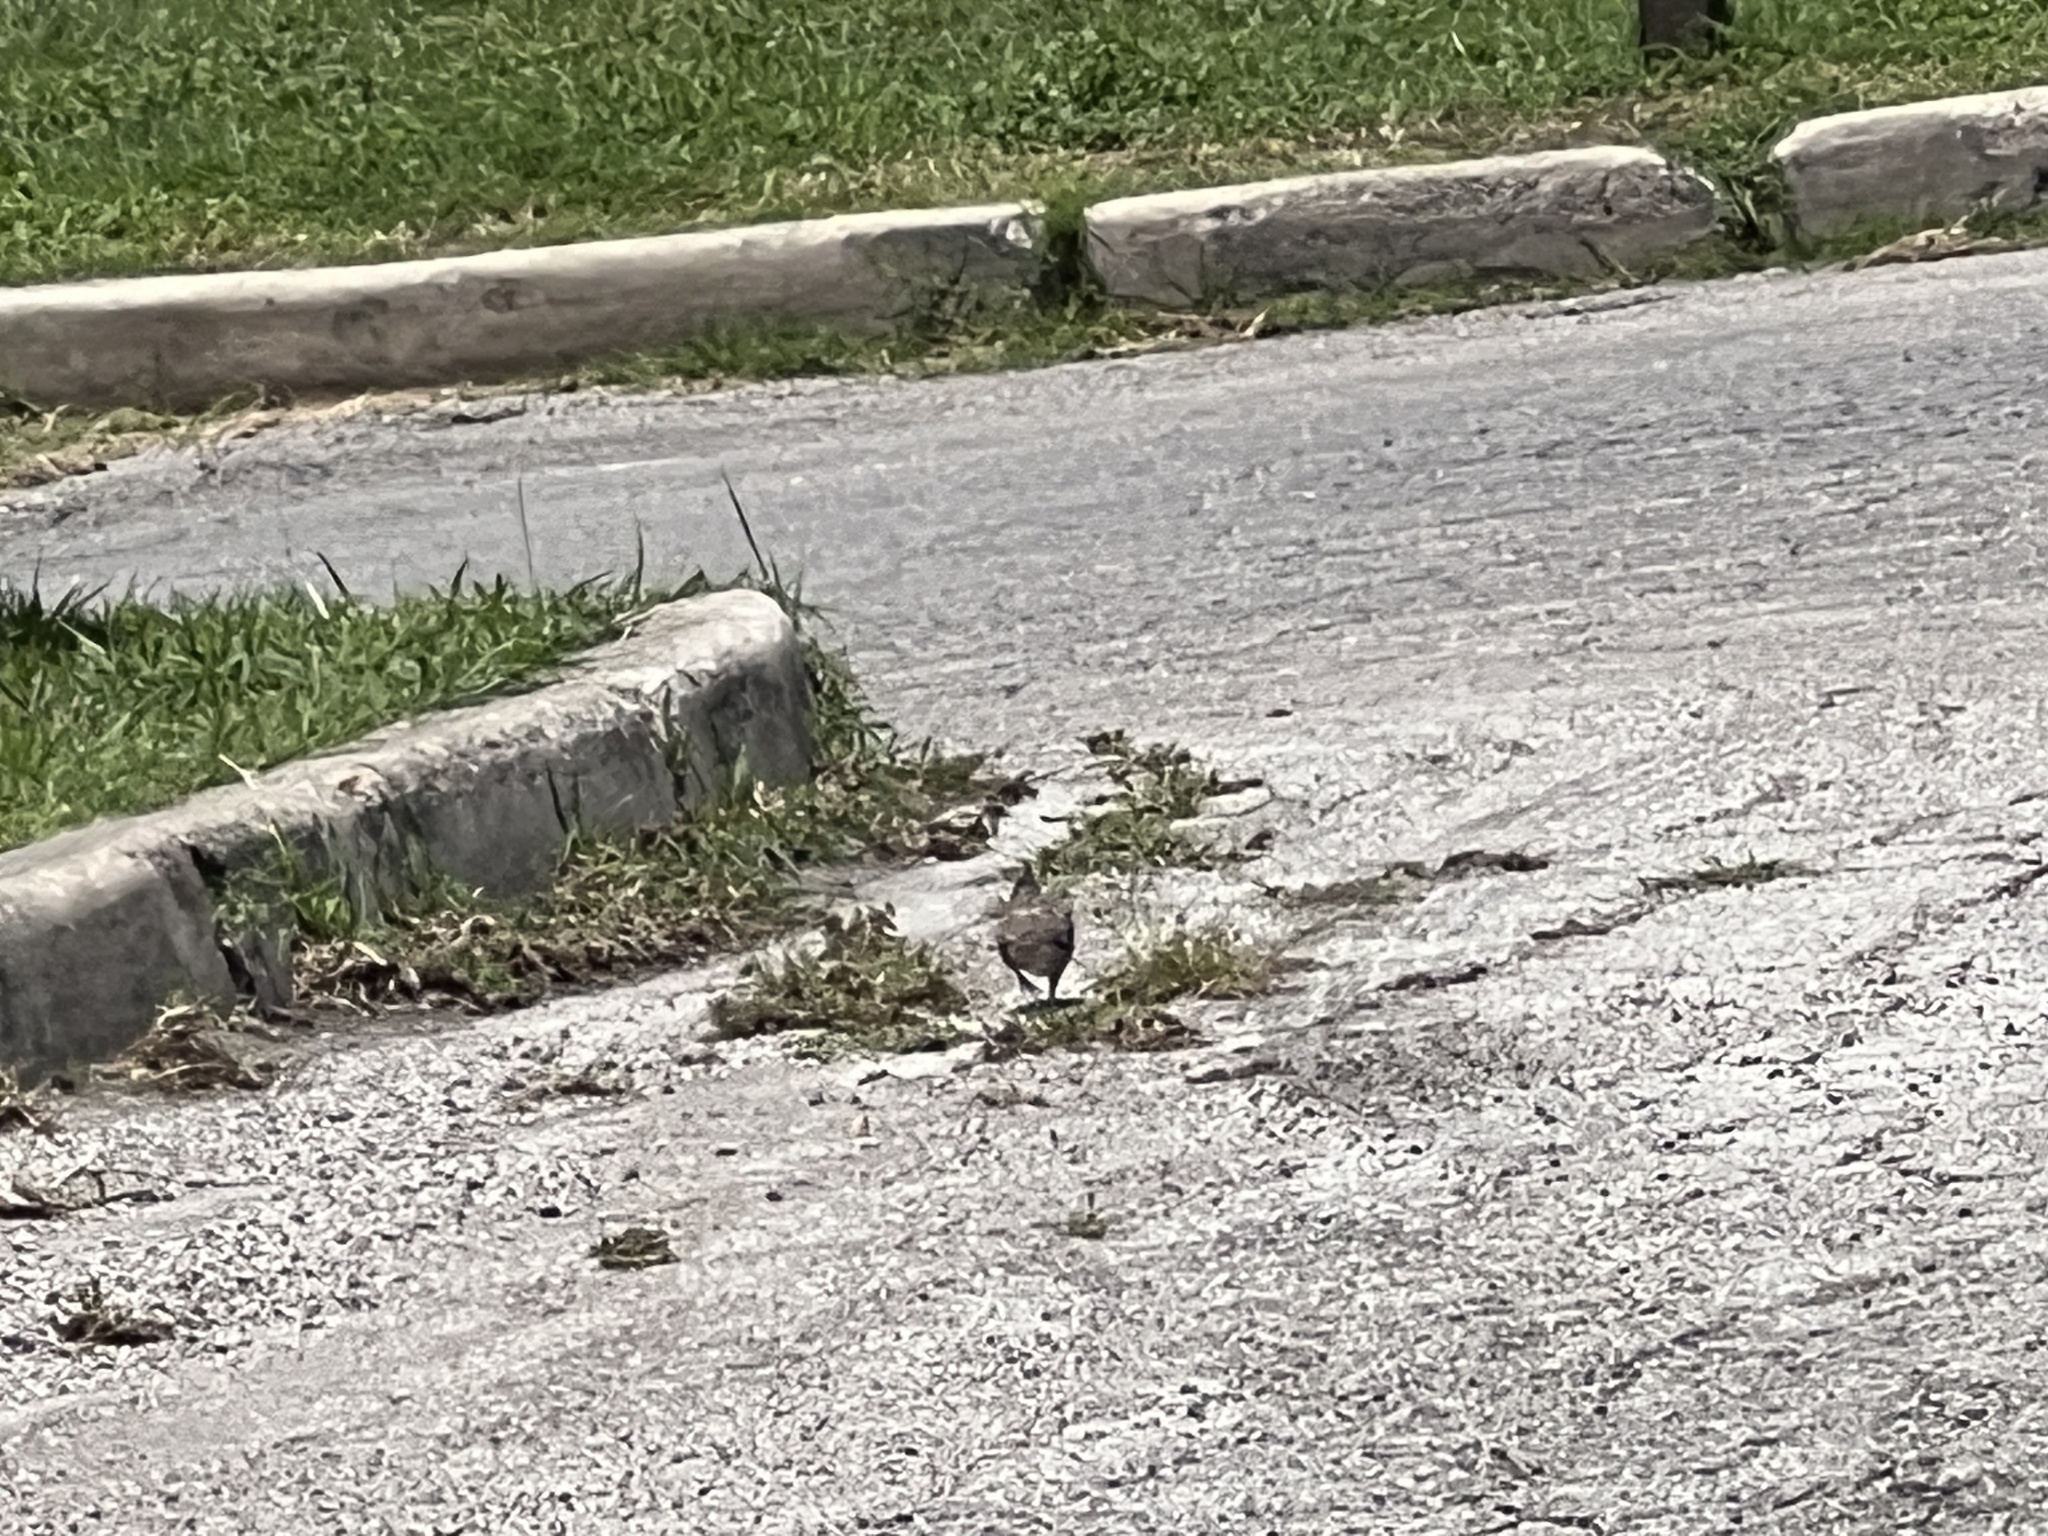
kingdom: Animalia
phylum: Chordata
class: Aves
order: Columbiformes
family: Columbidae
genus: Zenaida
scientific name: Zenaida macroura
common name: Mourning dove
